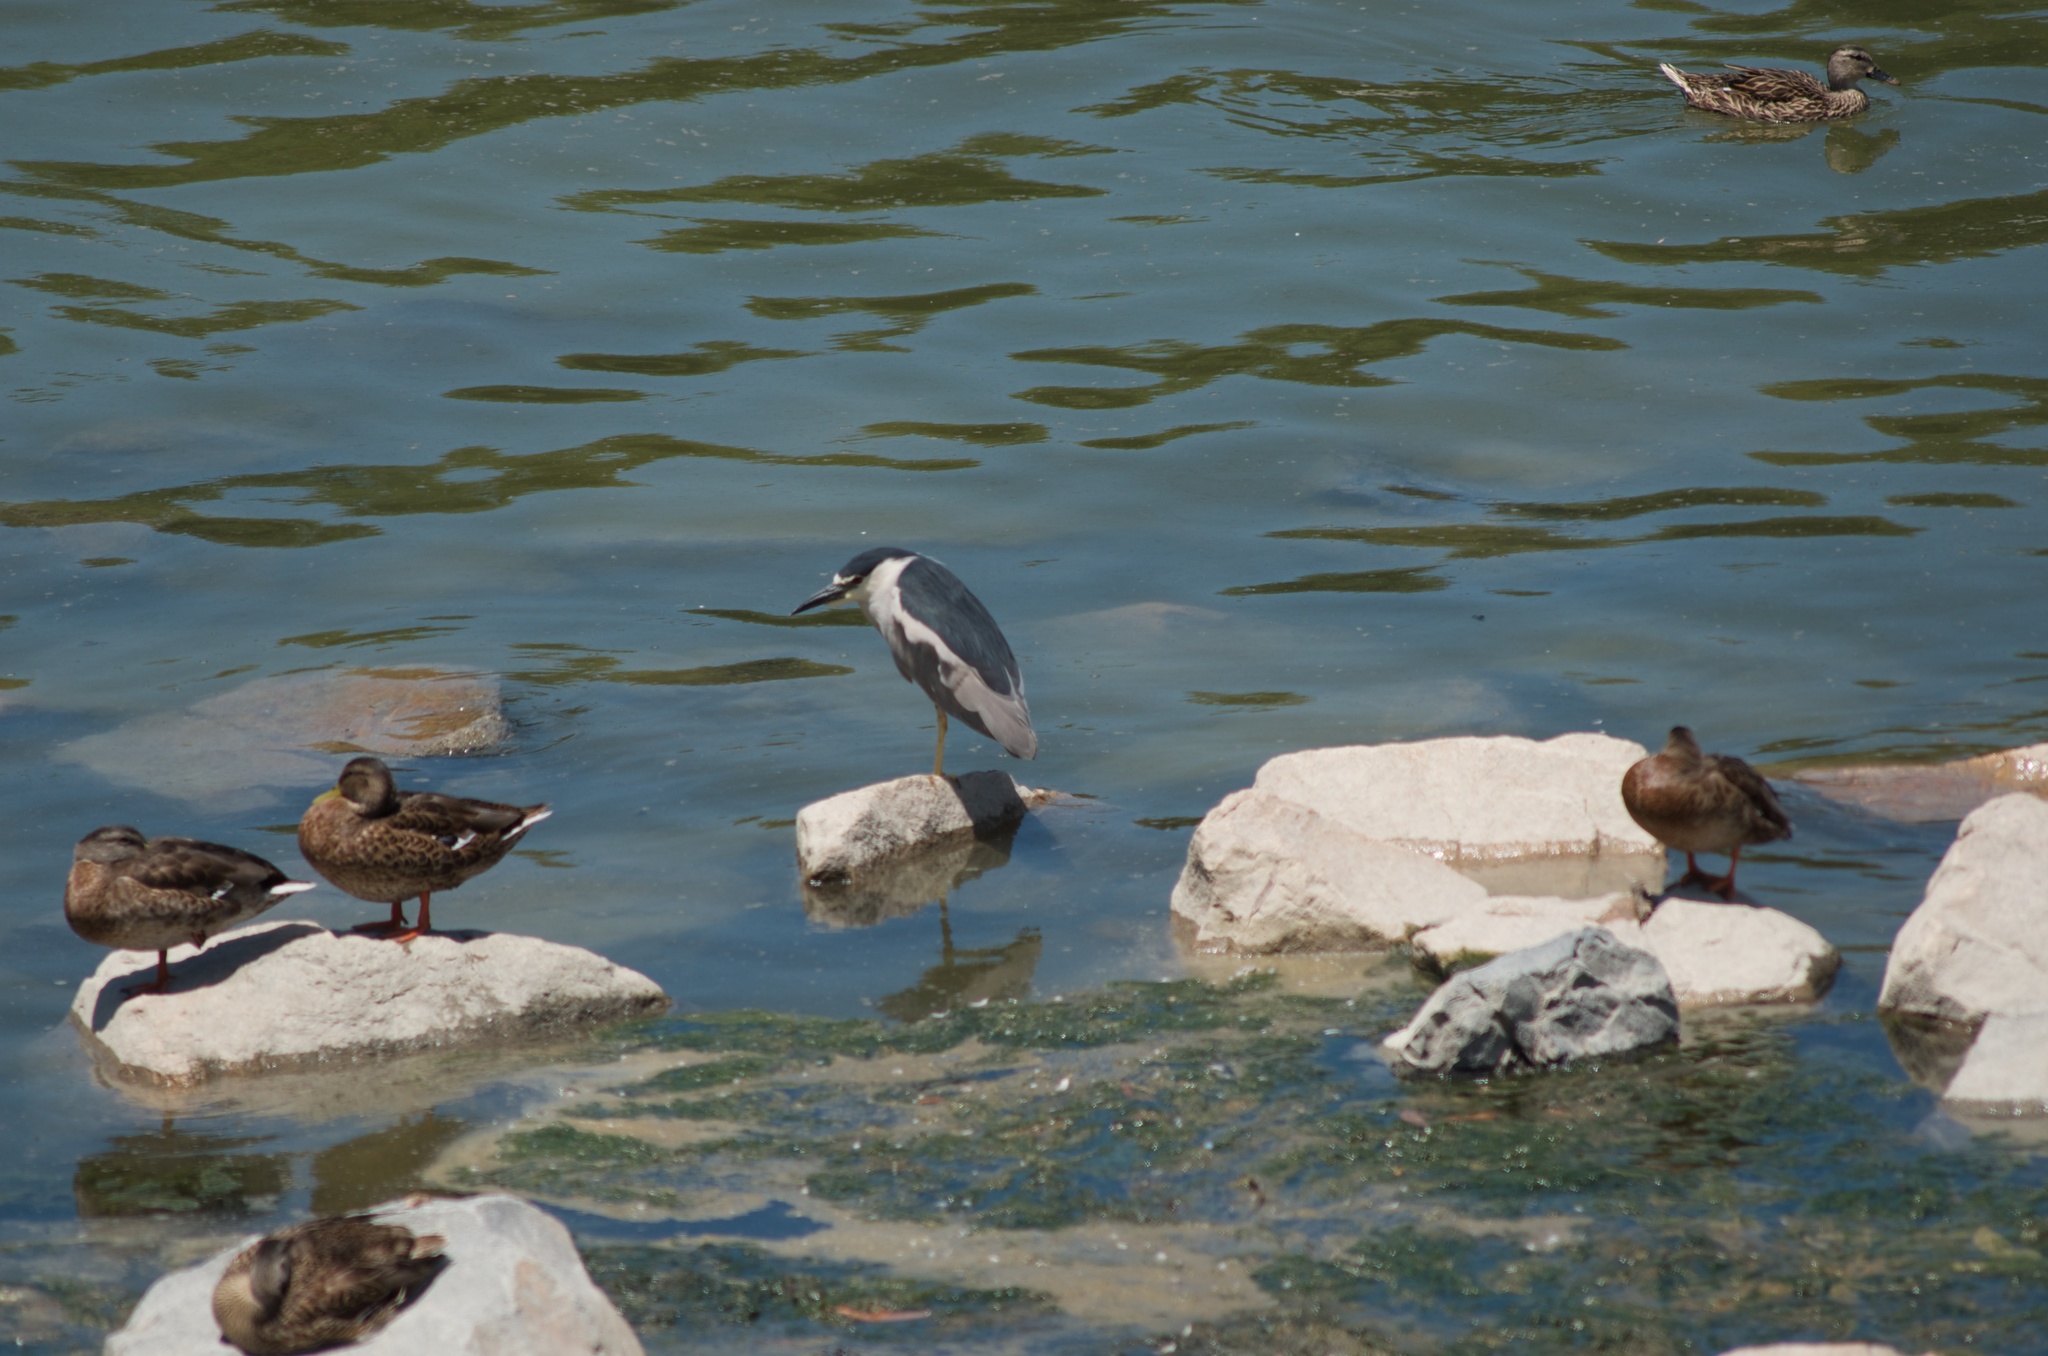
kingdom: Animalia
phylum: Chordata
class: Aves
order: Pelecaniformes
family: Ardeidae
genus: Nycticorax
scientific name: Nycticorax nycticorax
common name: Black-crowned night heron
